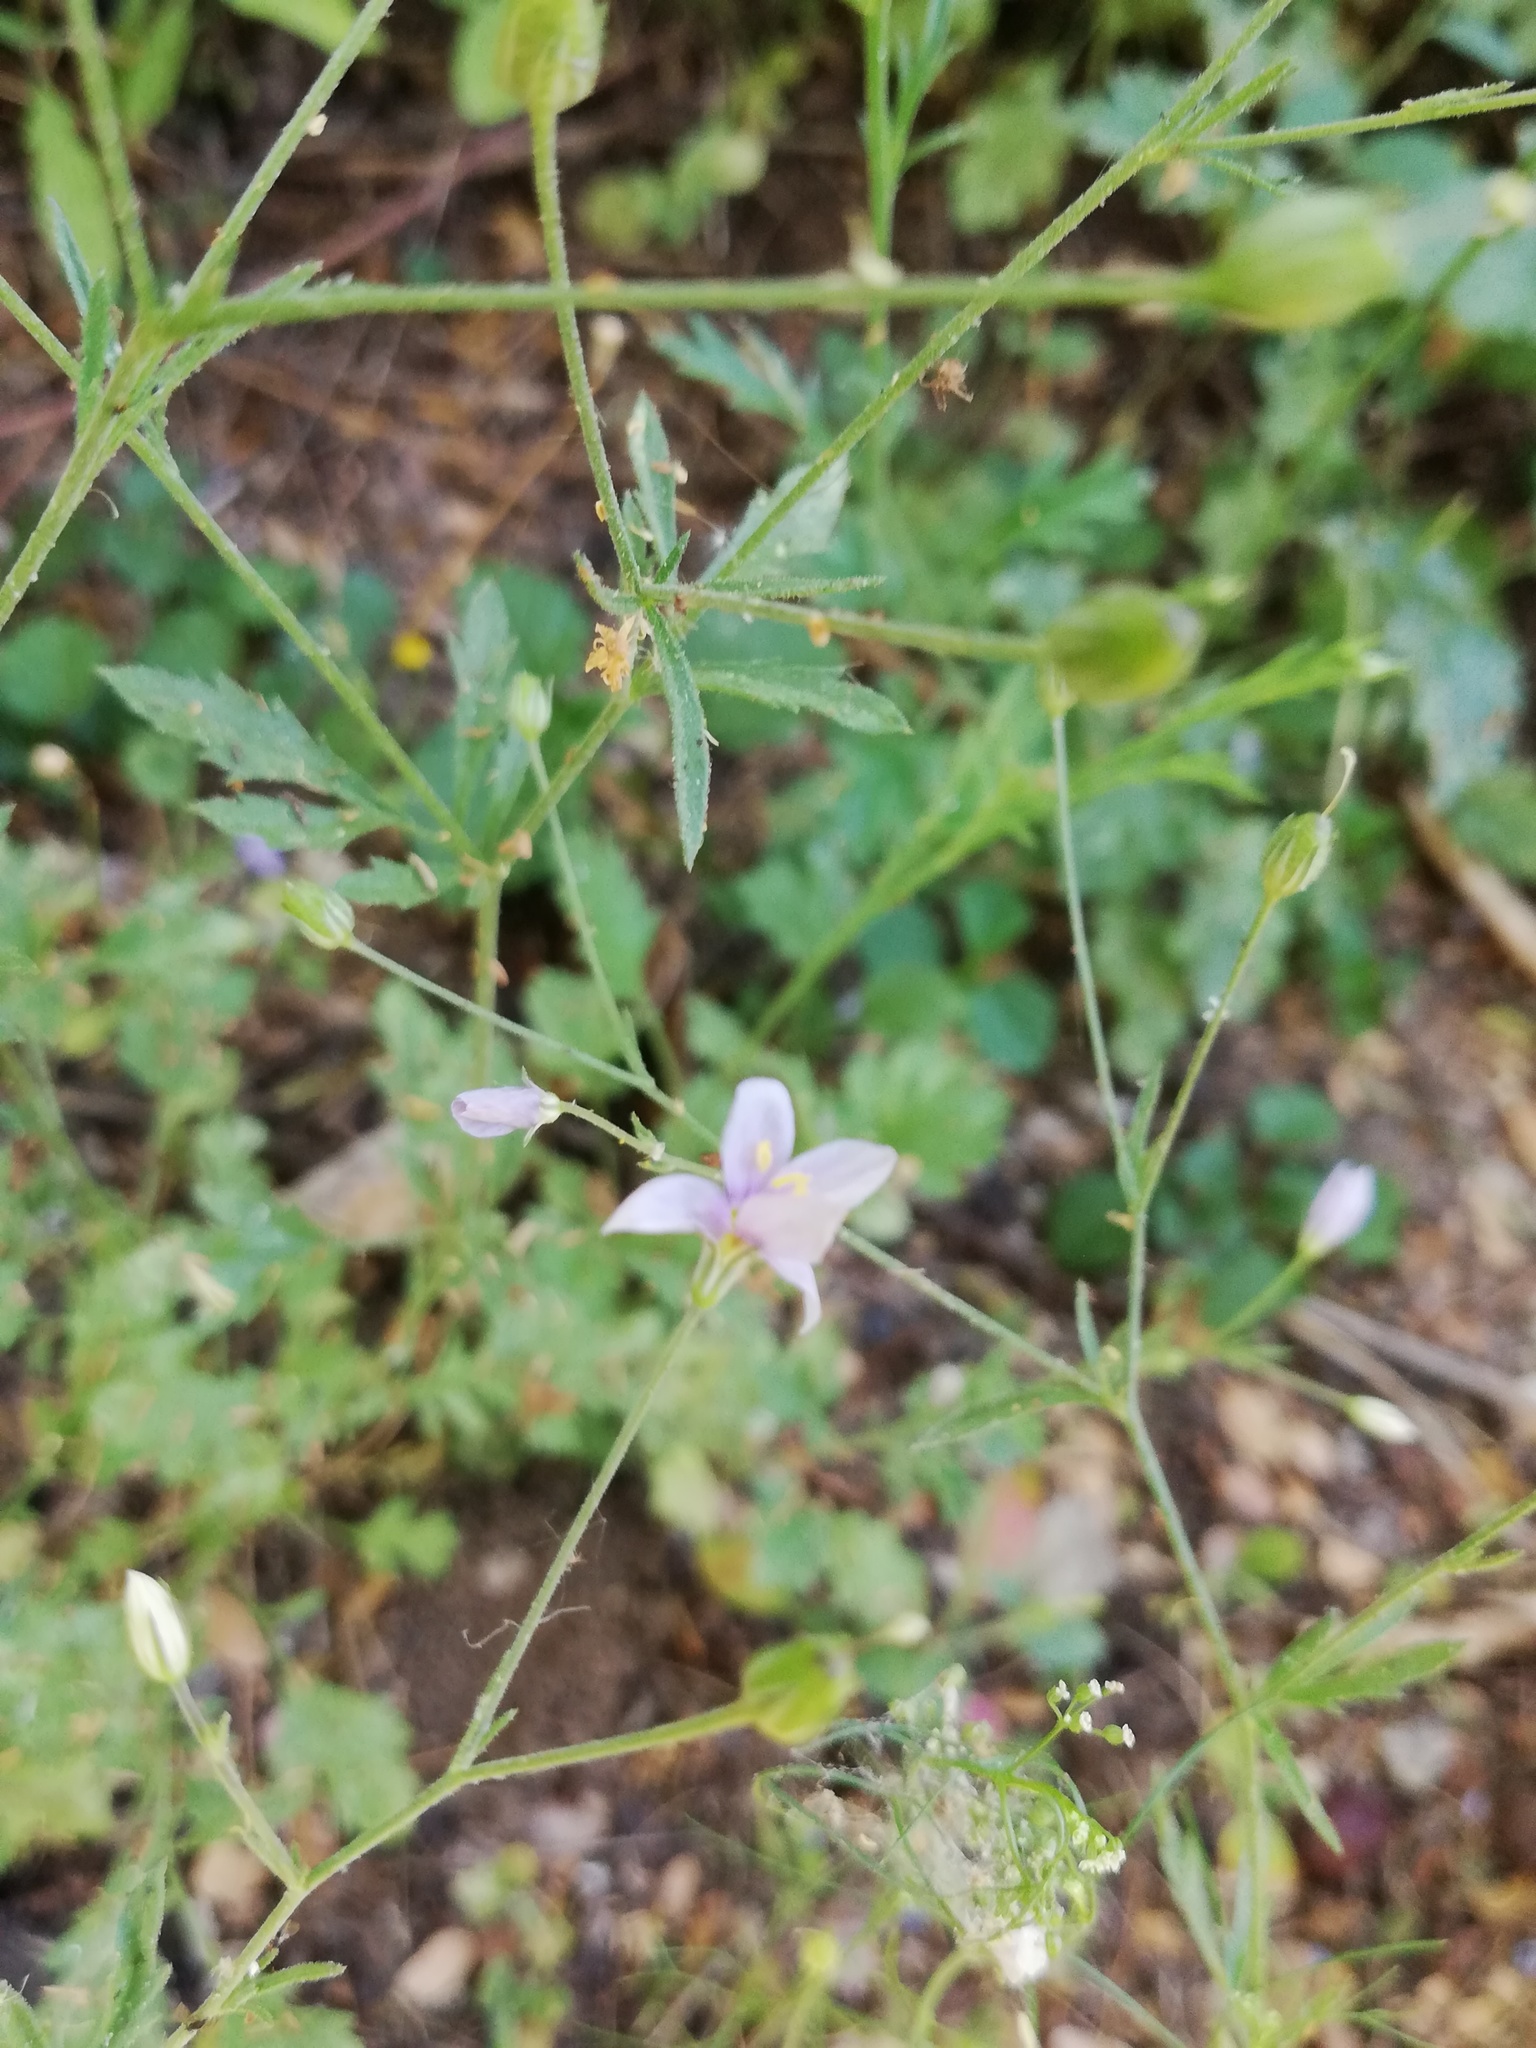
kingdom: Plantae
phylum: Tracheophyta
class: Magnoliopsida
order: Ericales
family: Polemoniaceae
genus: Giliastrum
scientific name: Giliastrum incisum
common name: Splitleaf gilia
